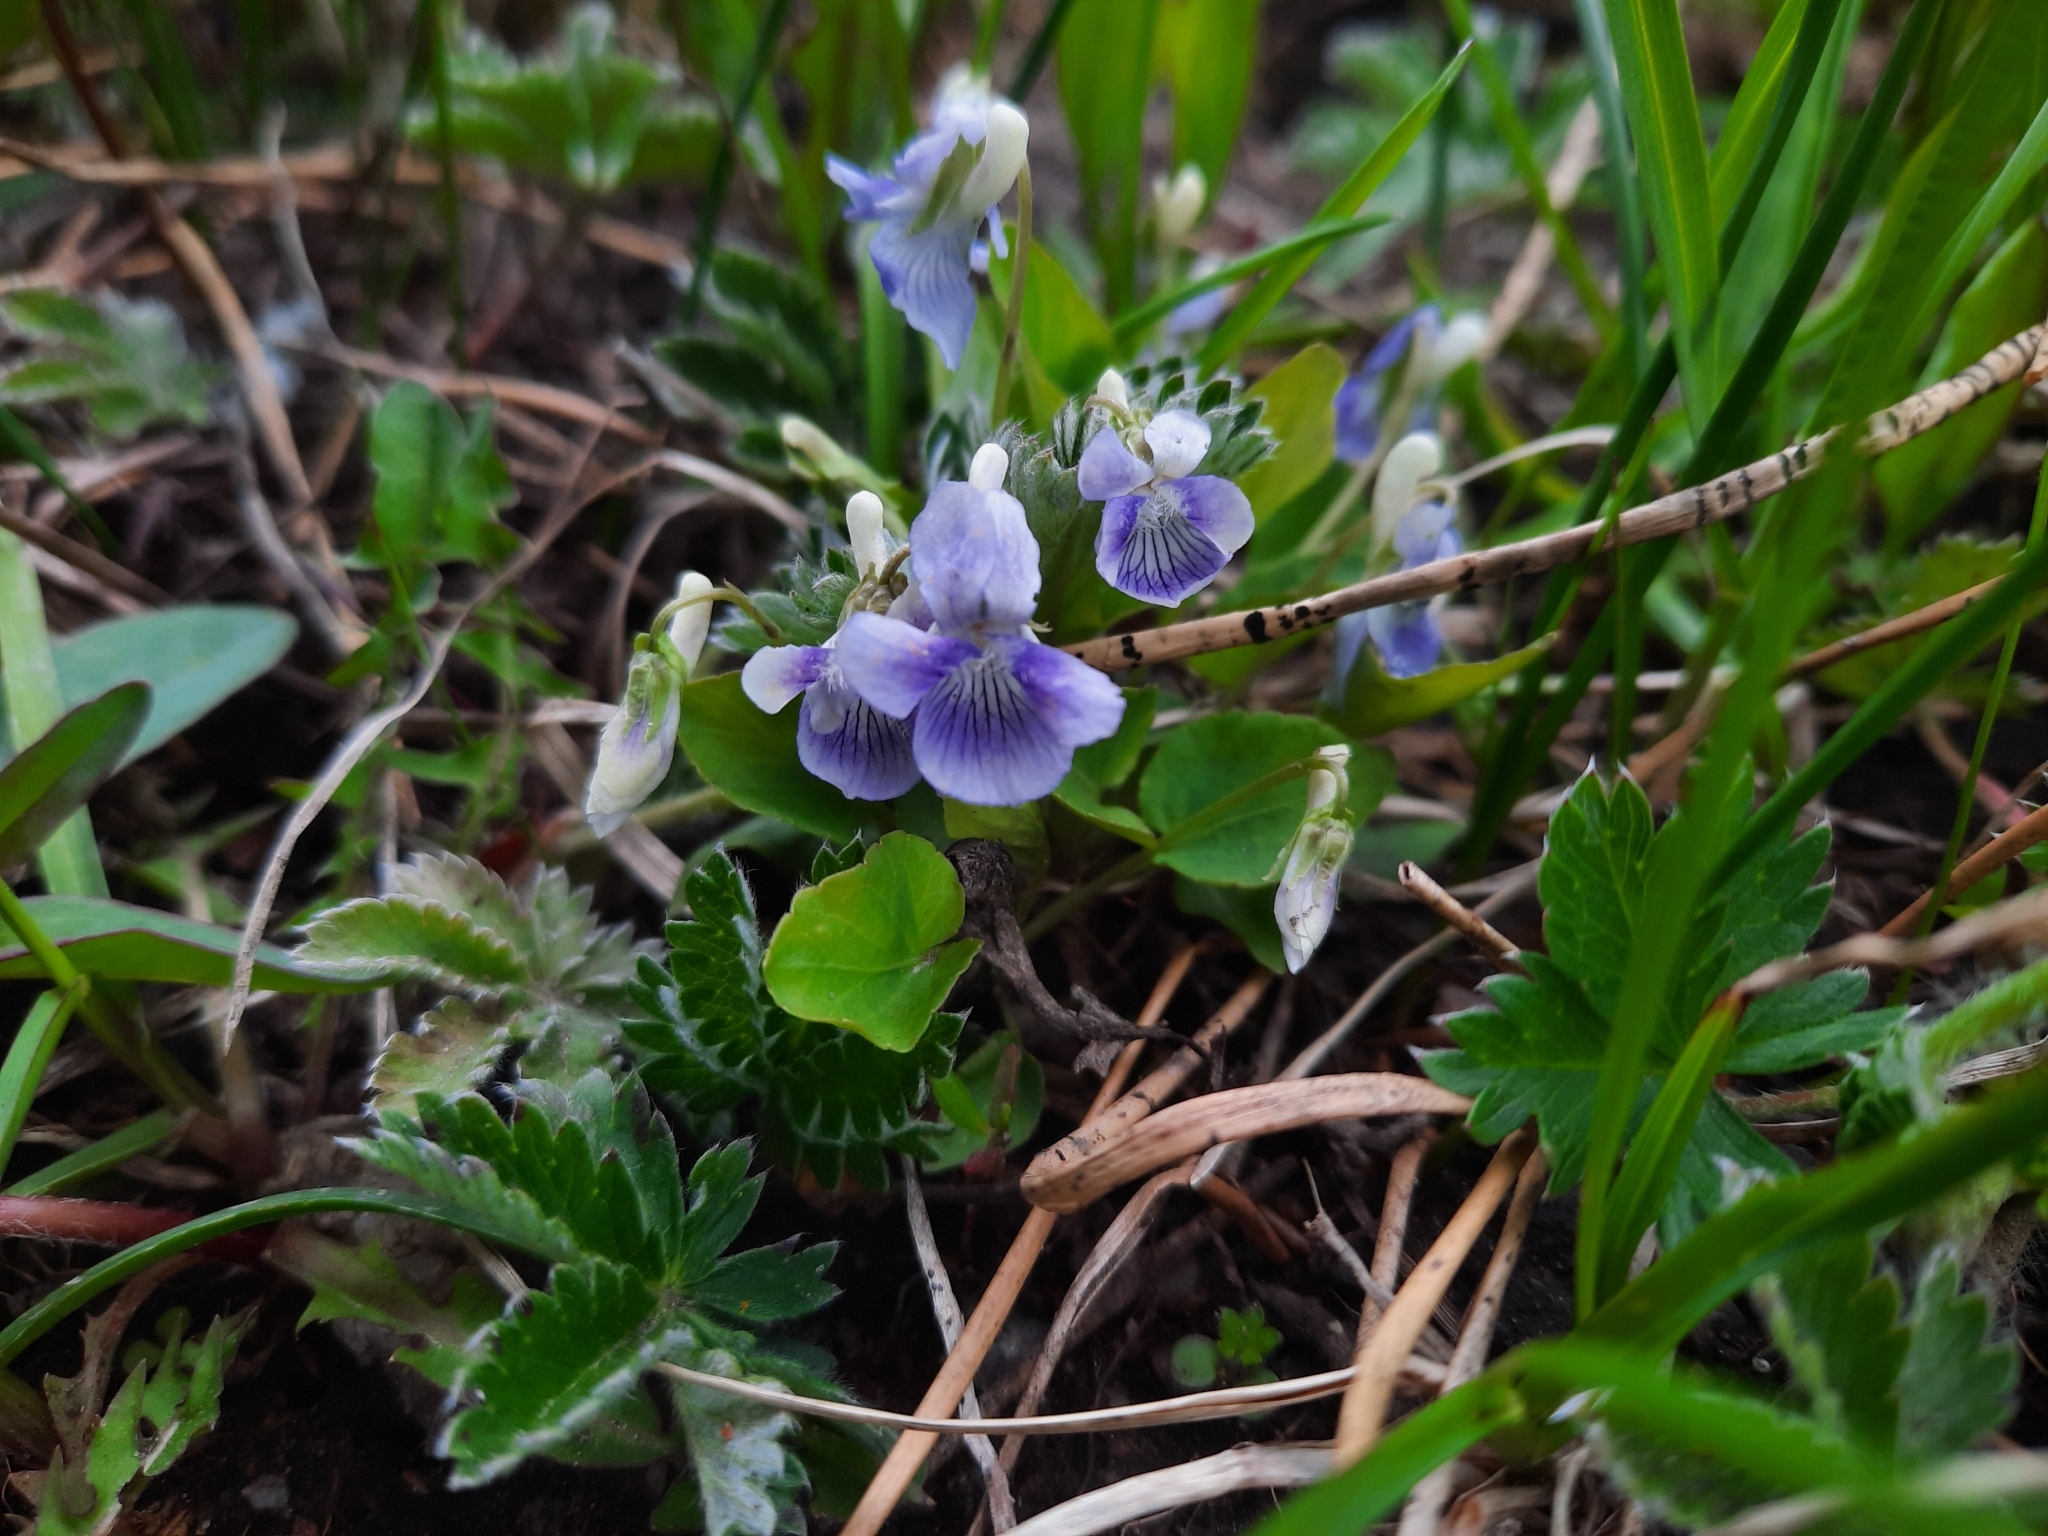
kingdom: Plantae
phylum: Tracheophyta
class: Magnoliopsida
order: Malpighiales
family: Violaceae
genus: Viola
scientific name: Viola adunca
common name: Sand violet
